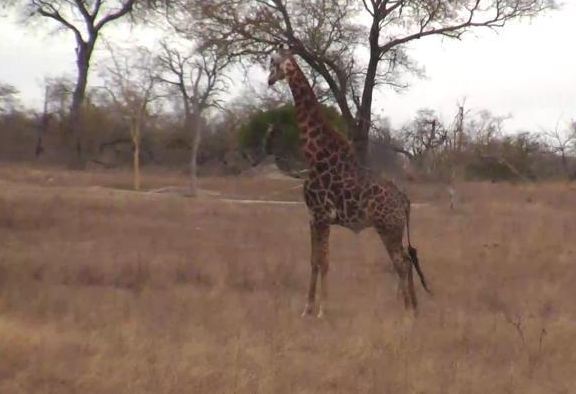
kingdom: Animalia
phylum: Chordata
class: Mammalia
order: Artiodactyla
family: Giraffidae
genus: Giraffa
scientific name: Giraffa giraffa
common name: Southern giraffe
